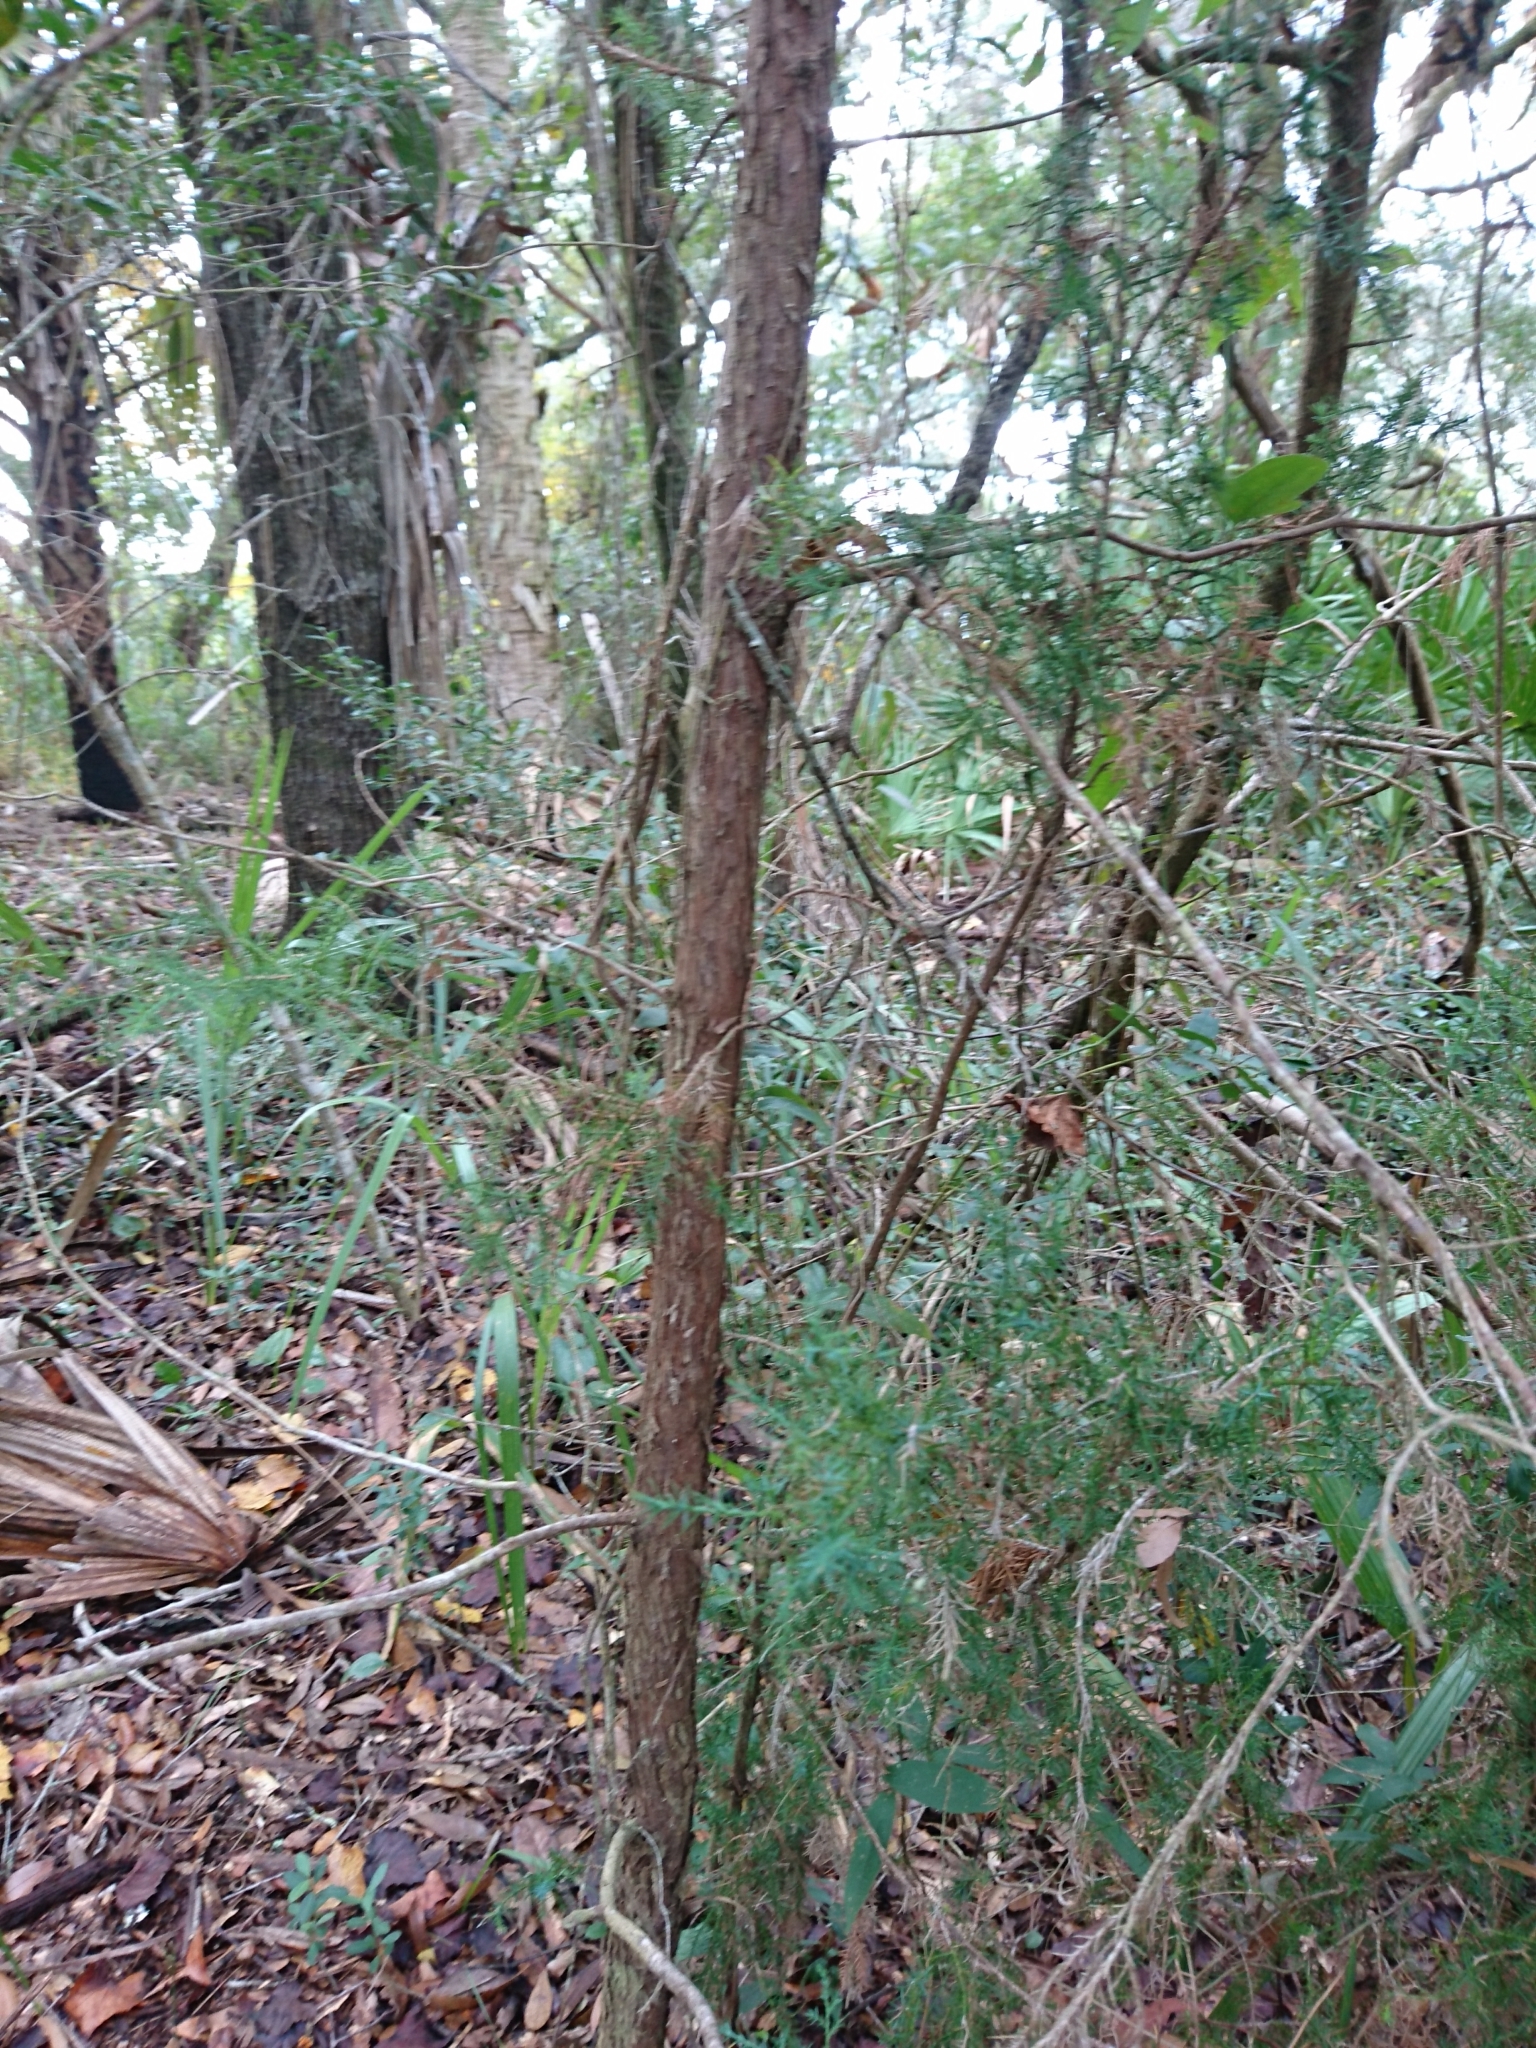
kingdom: Plantae
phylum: Tracheophyta
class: Pinopsida
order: Pinales
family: Cupressaceae
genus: Juniperus
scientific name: Juniperus virginiana
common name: Red juniper
